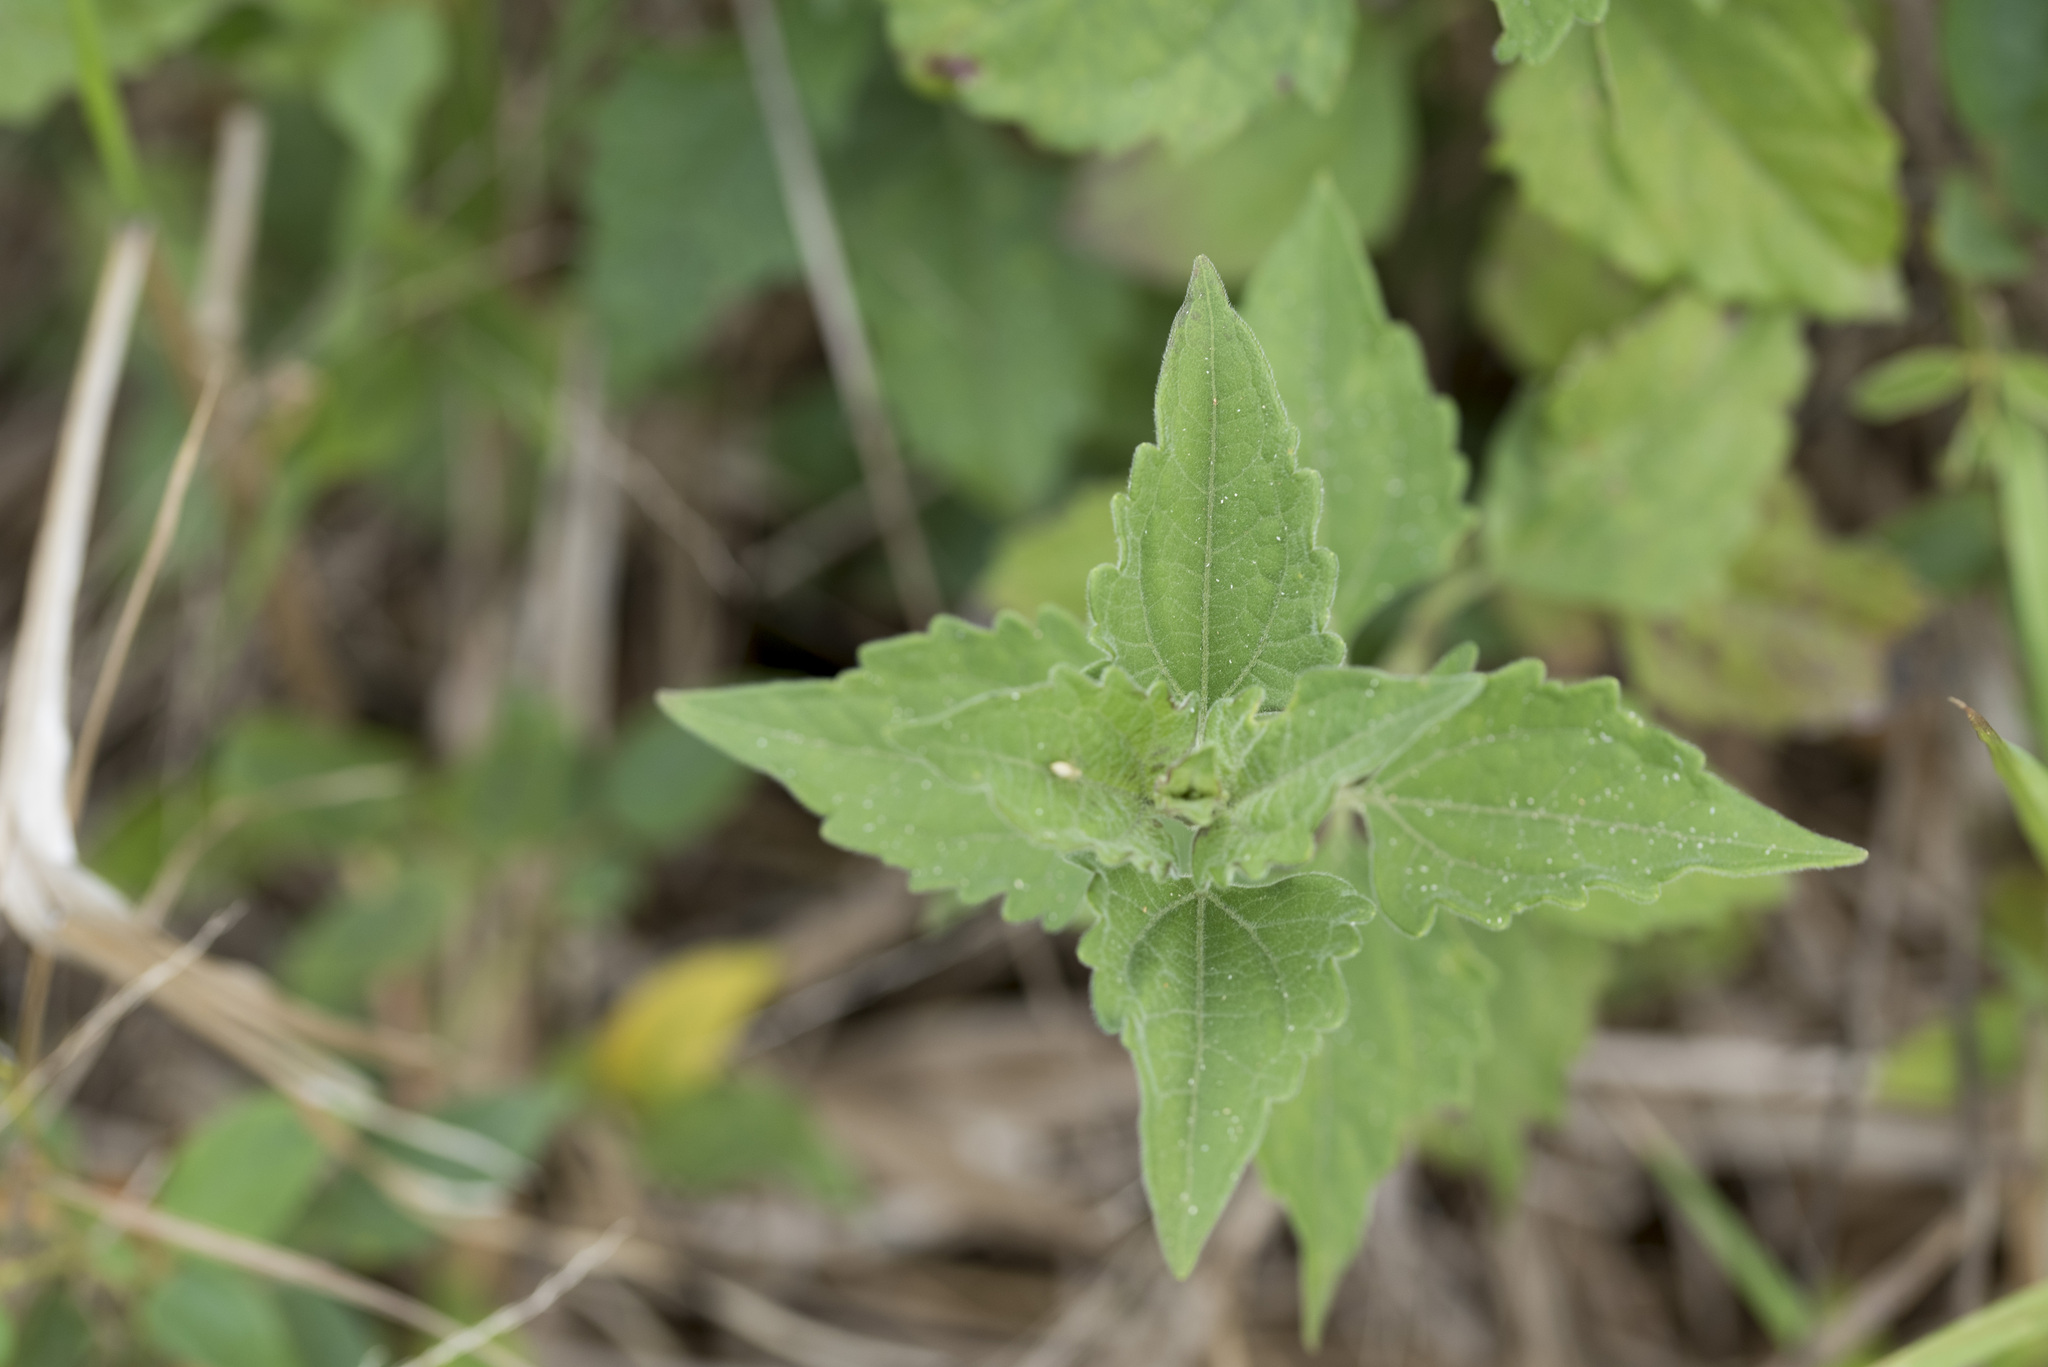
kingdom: Plantae
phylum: Tracheophyta
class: Magnoliopsida
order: Asterales
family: Asteraceae
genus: Chromolaena
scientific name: Chromolaena odorata
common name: Siamweed
